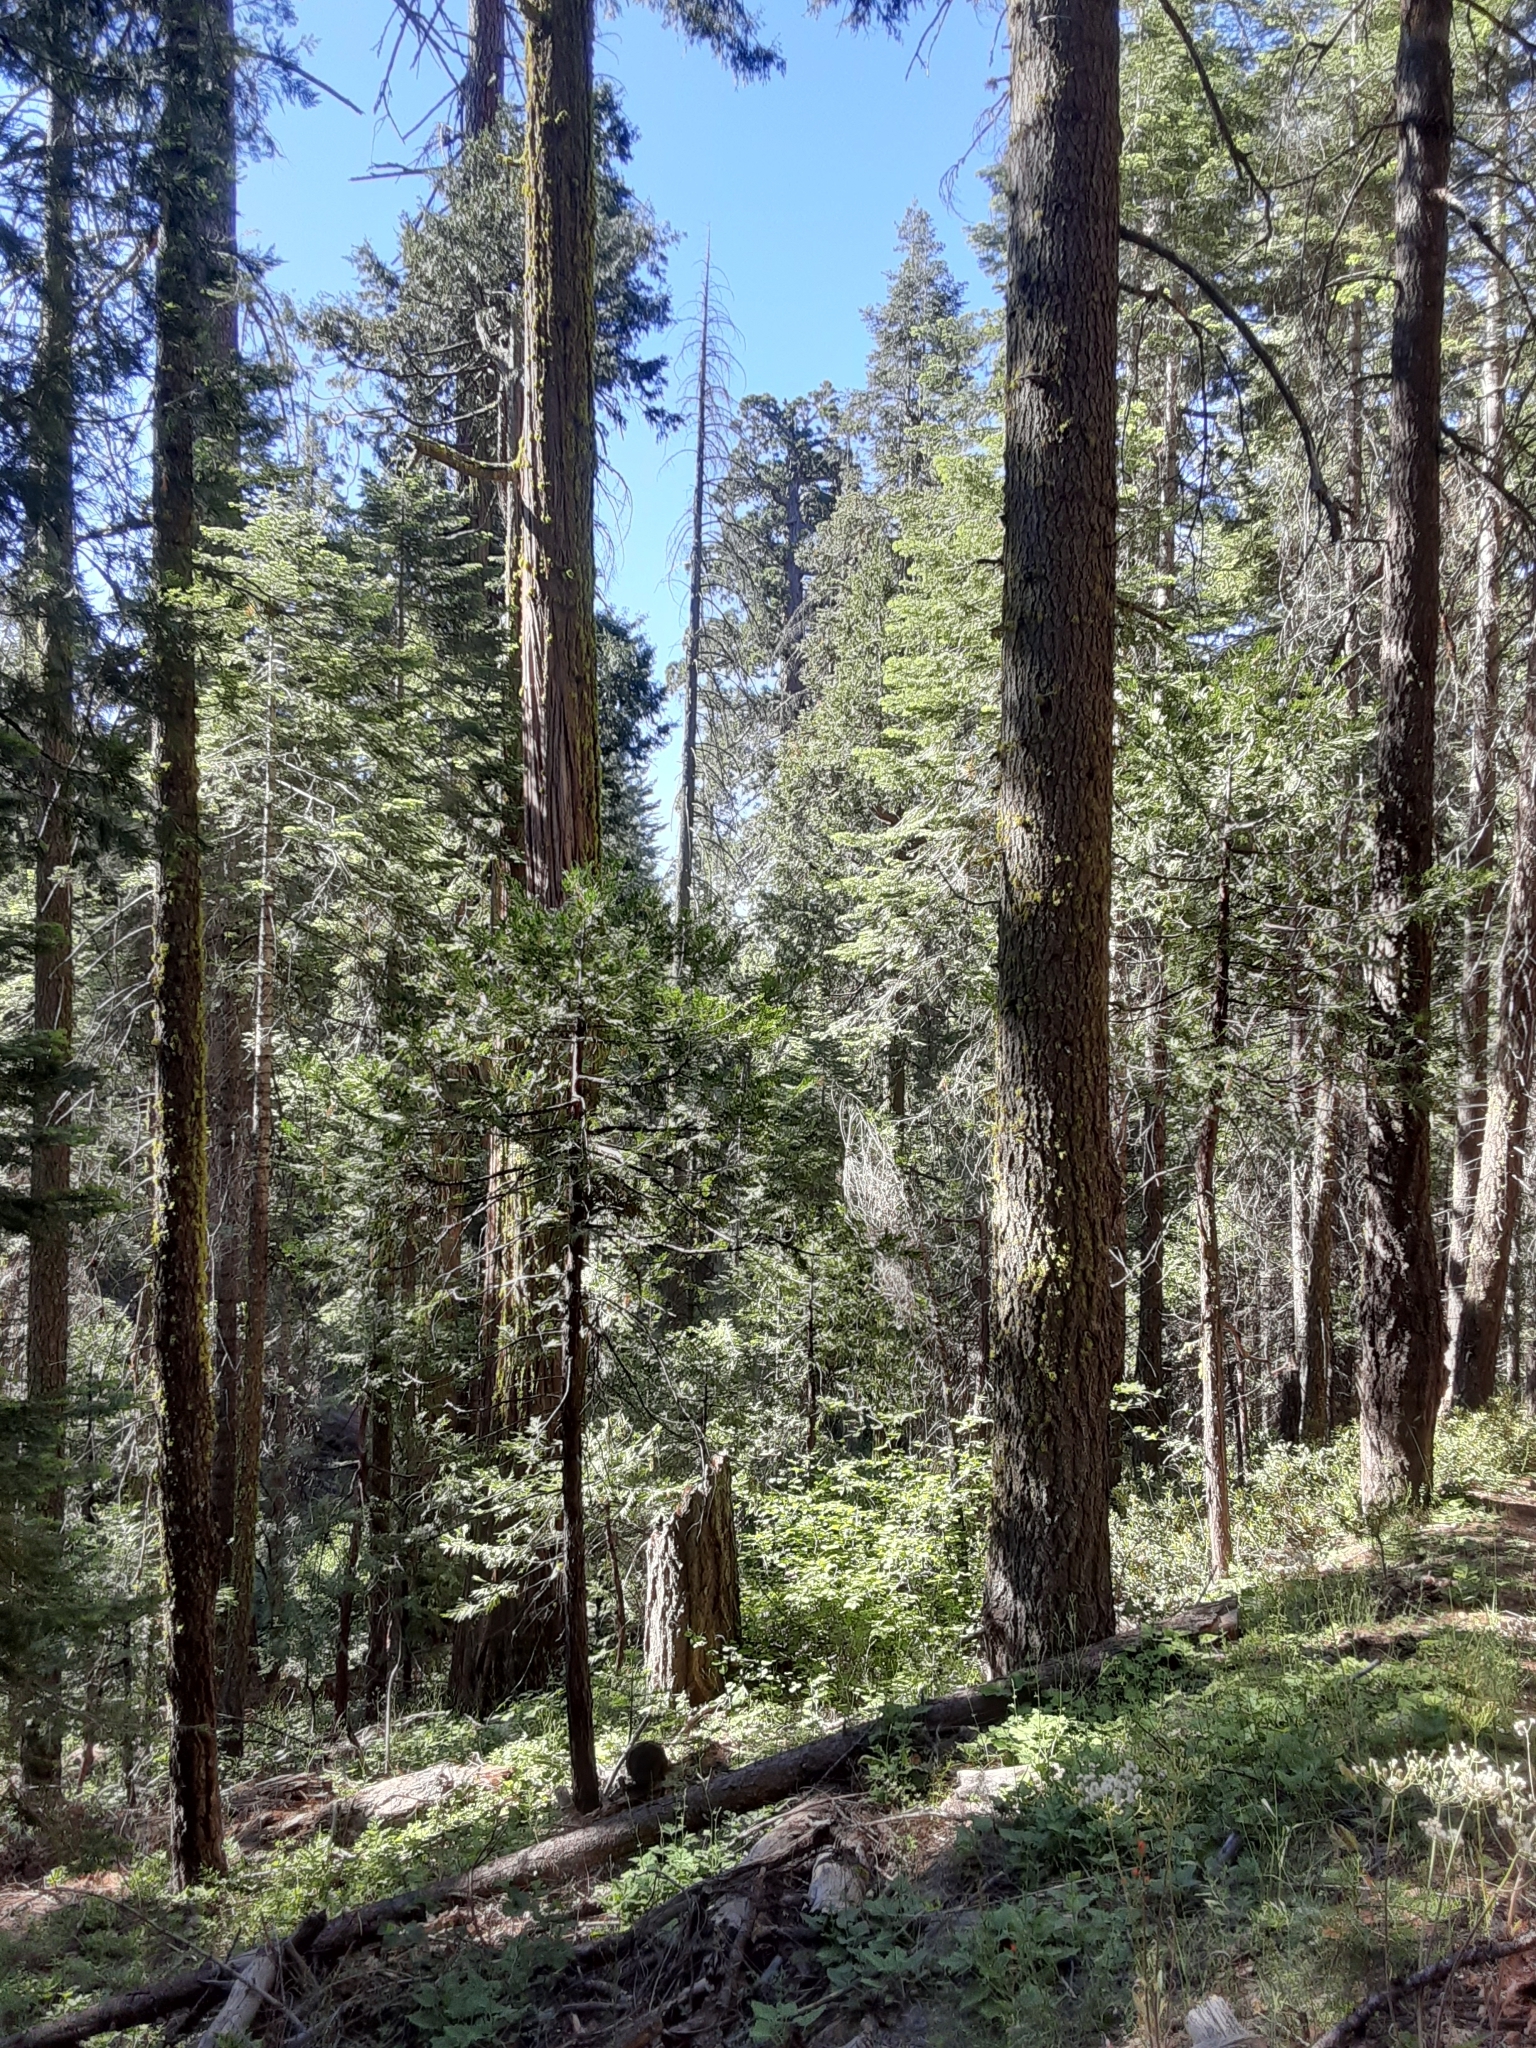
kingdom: Plantae
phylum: Tracheophyta
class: Pinopsida
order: Pinales
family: Cupressaceae
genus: Sequoiadendron
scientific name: Sequoiadendron giganteum
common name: Wellingtonia
